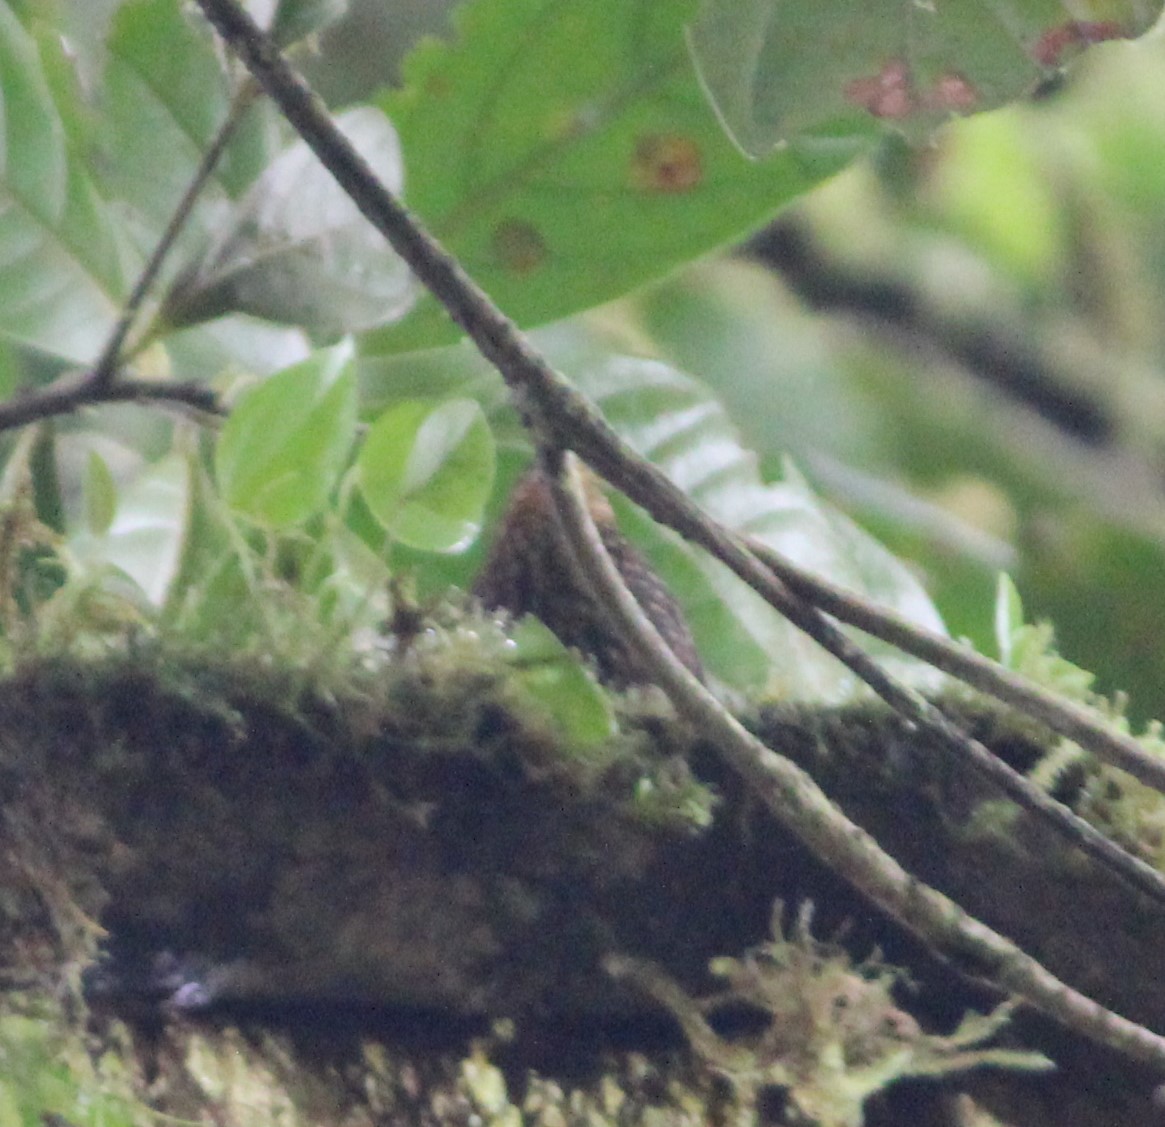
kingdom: Animalia
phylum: Chordata
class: Aves
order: Passeriformes
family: Furnariidae
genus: Premnoplex
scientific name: Premnoplex brunnescens
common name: Spotted barbtail
